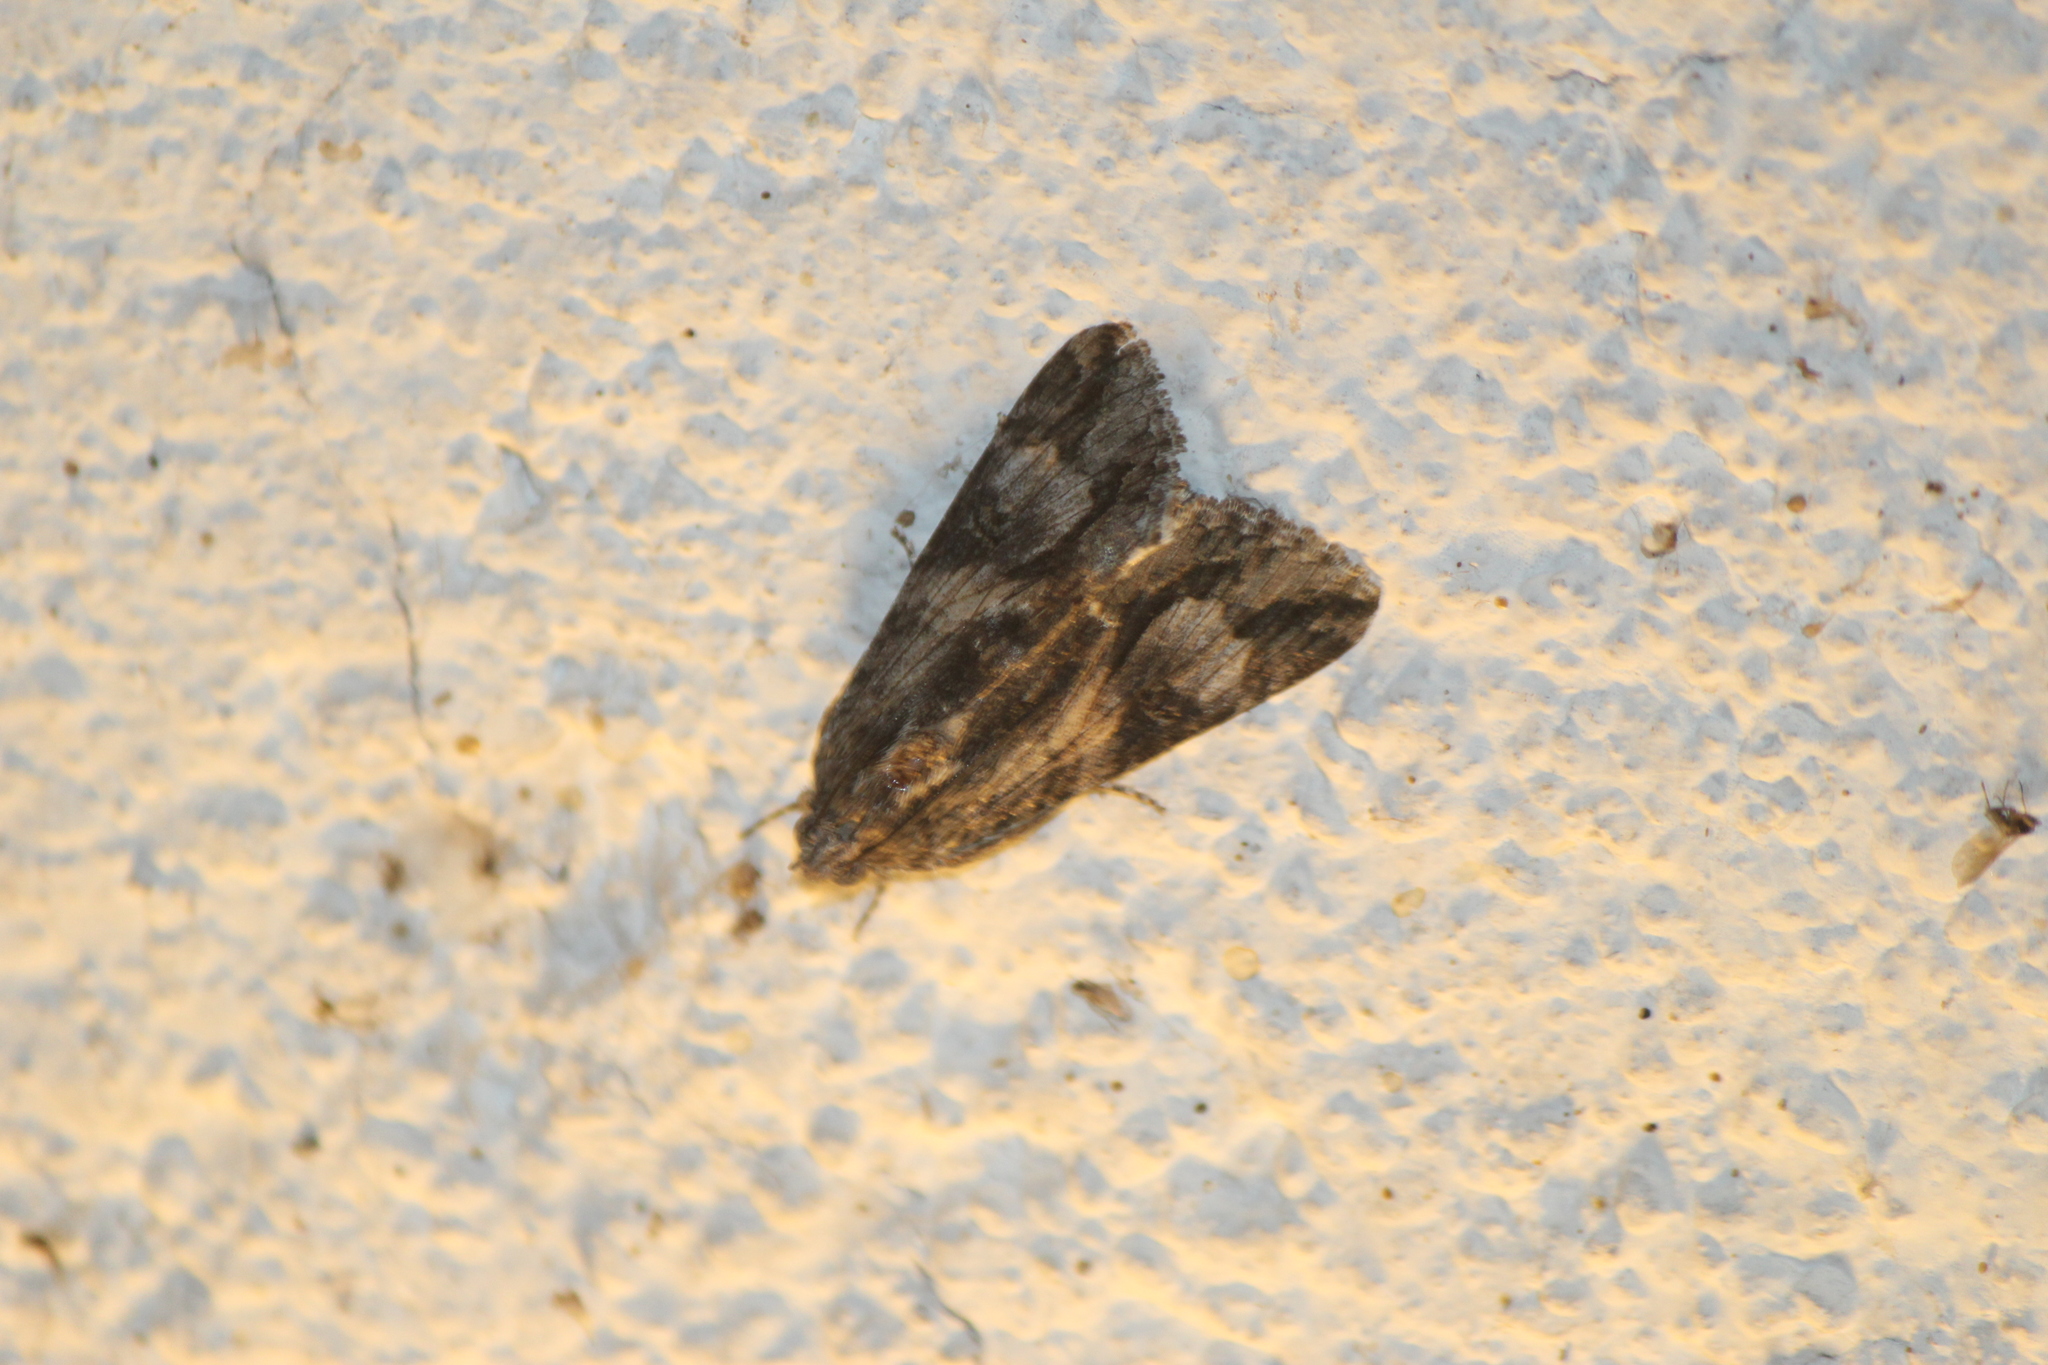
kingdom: Animalia
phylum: Arthropoda
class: Insecta
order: Lepidoptera
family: Erebidae
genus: Melipotis
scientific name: Melipotis jucunda
